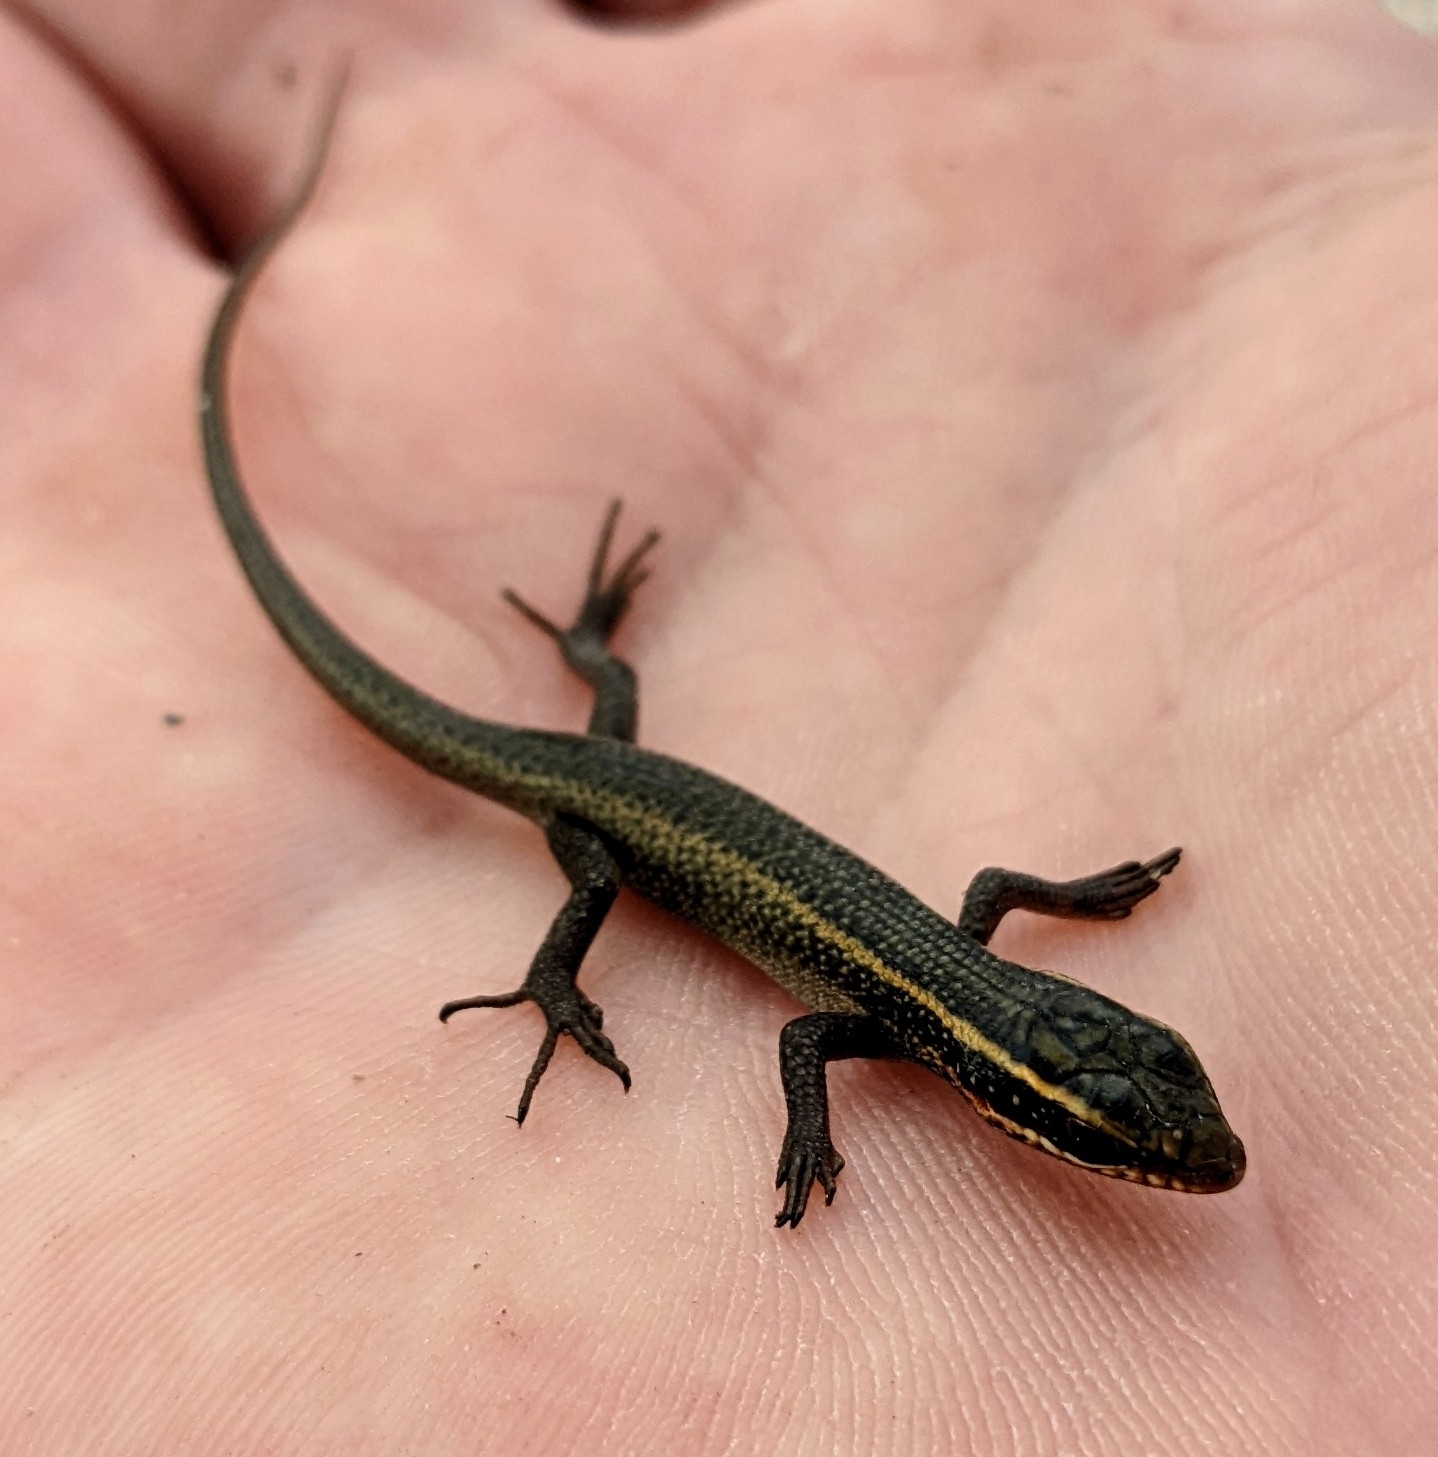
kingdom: Animalia
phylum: Chordata
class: Squamata
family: Scincidae
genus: Trachylepis
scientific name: Trachylepis punctatissima
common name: Montane speckled skink
